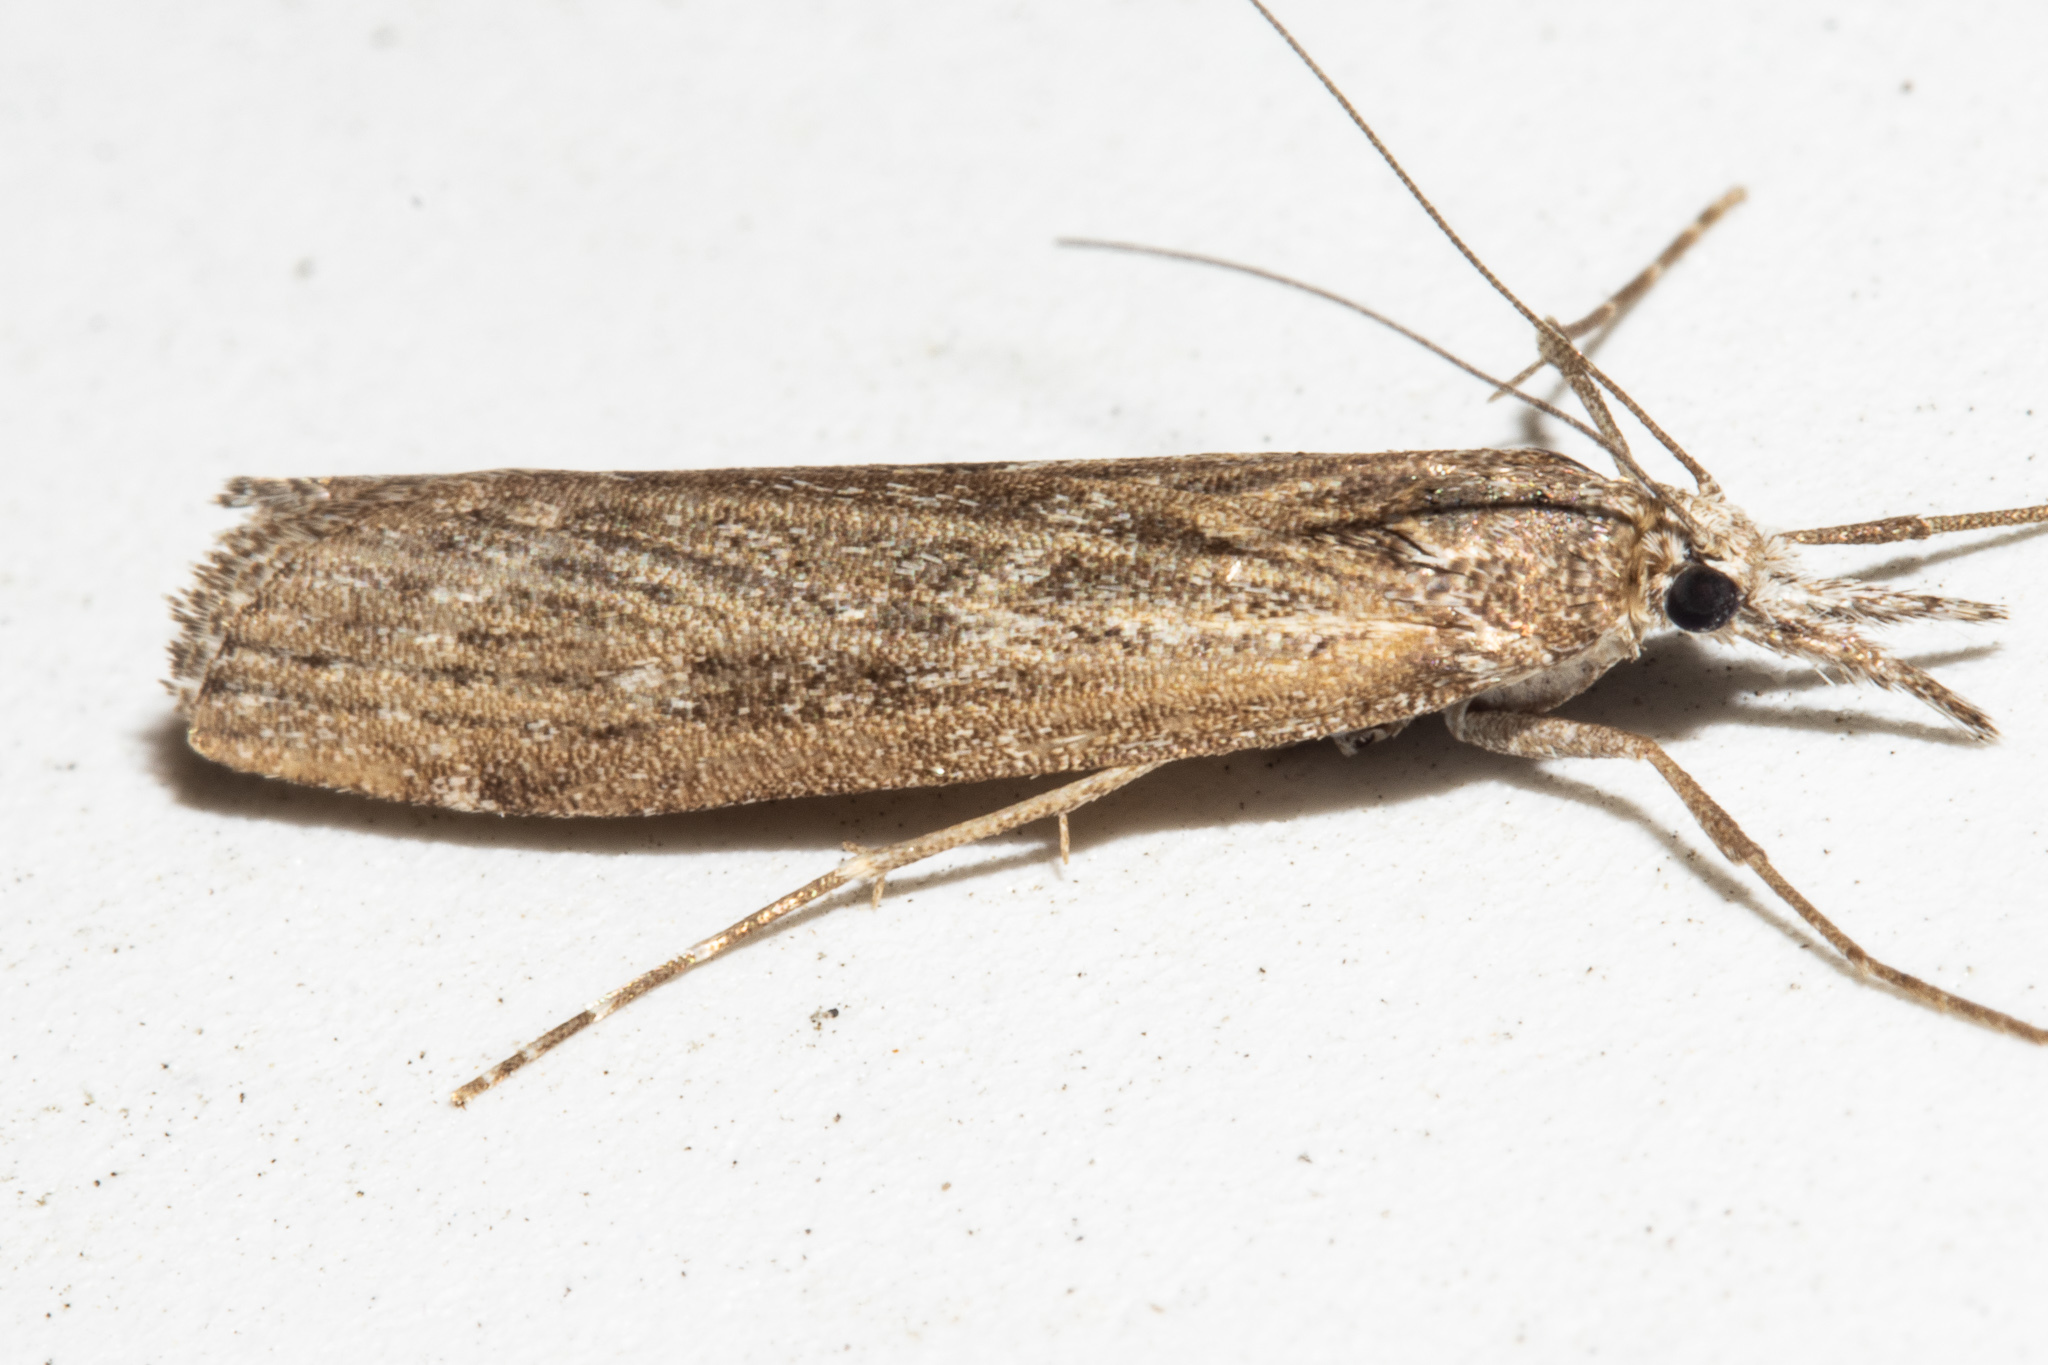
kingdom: Animalia
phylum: Arthropoda
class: Insecta
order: Lepidoptera
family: Crambidae
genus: Orocrambus
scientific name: Orocrambus cyclopicus
